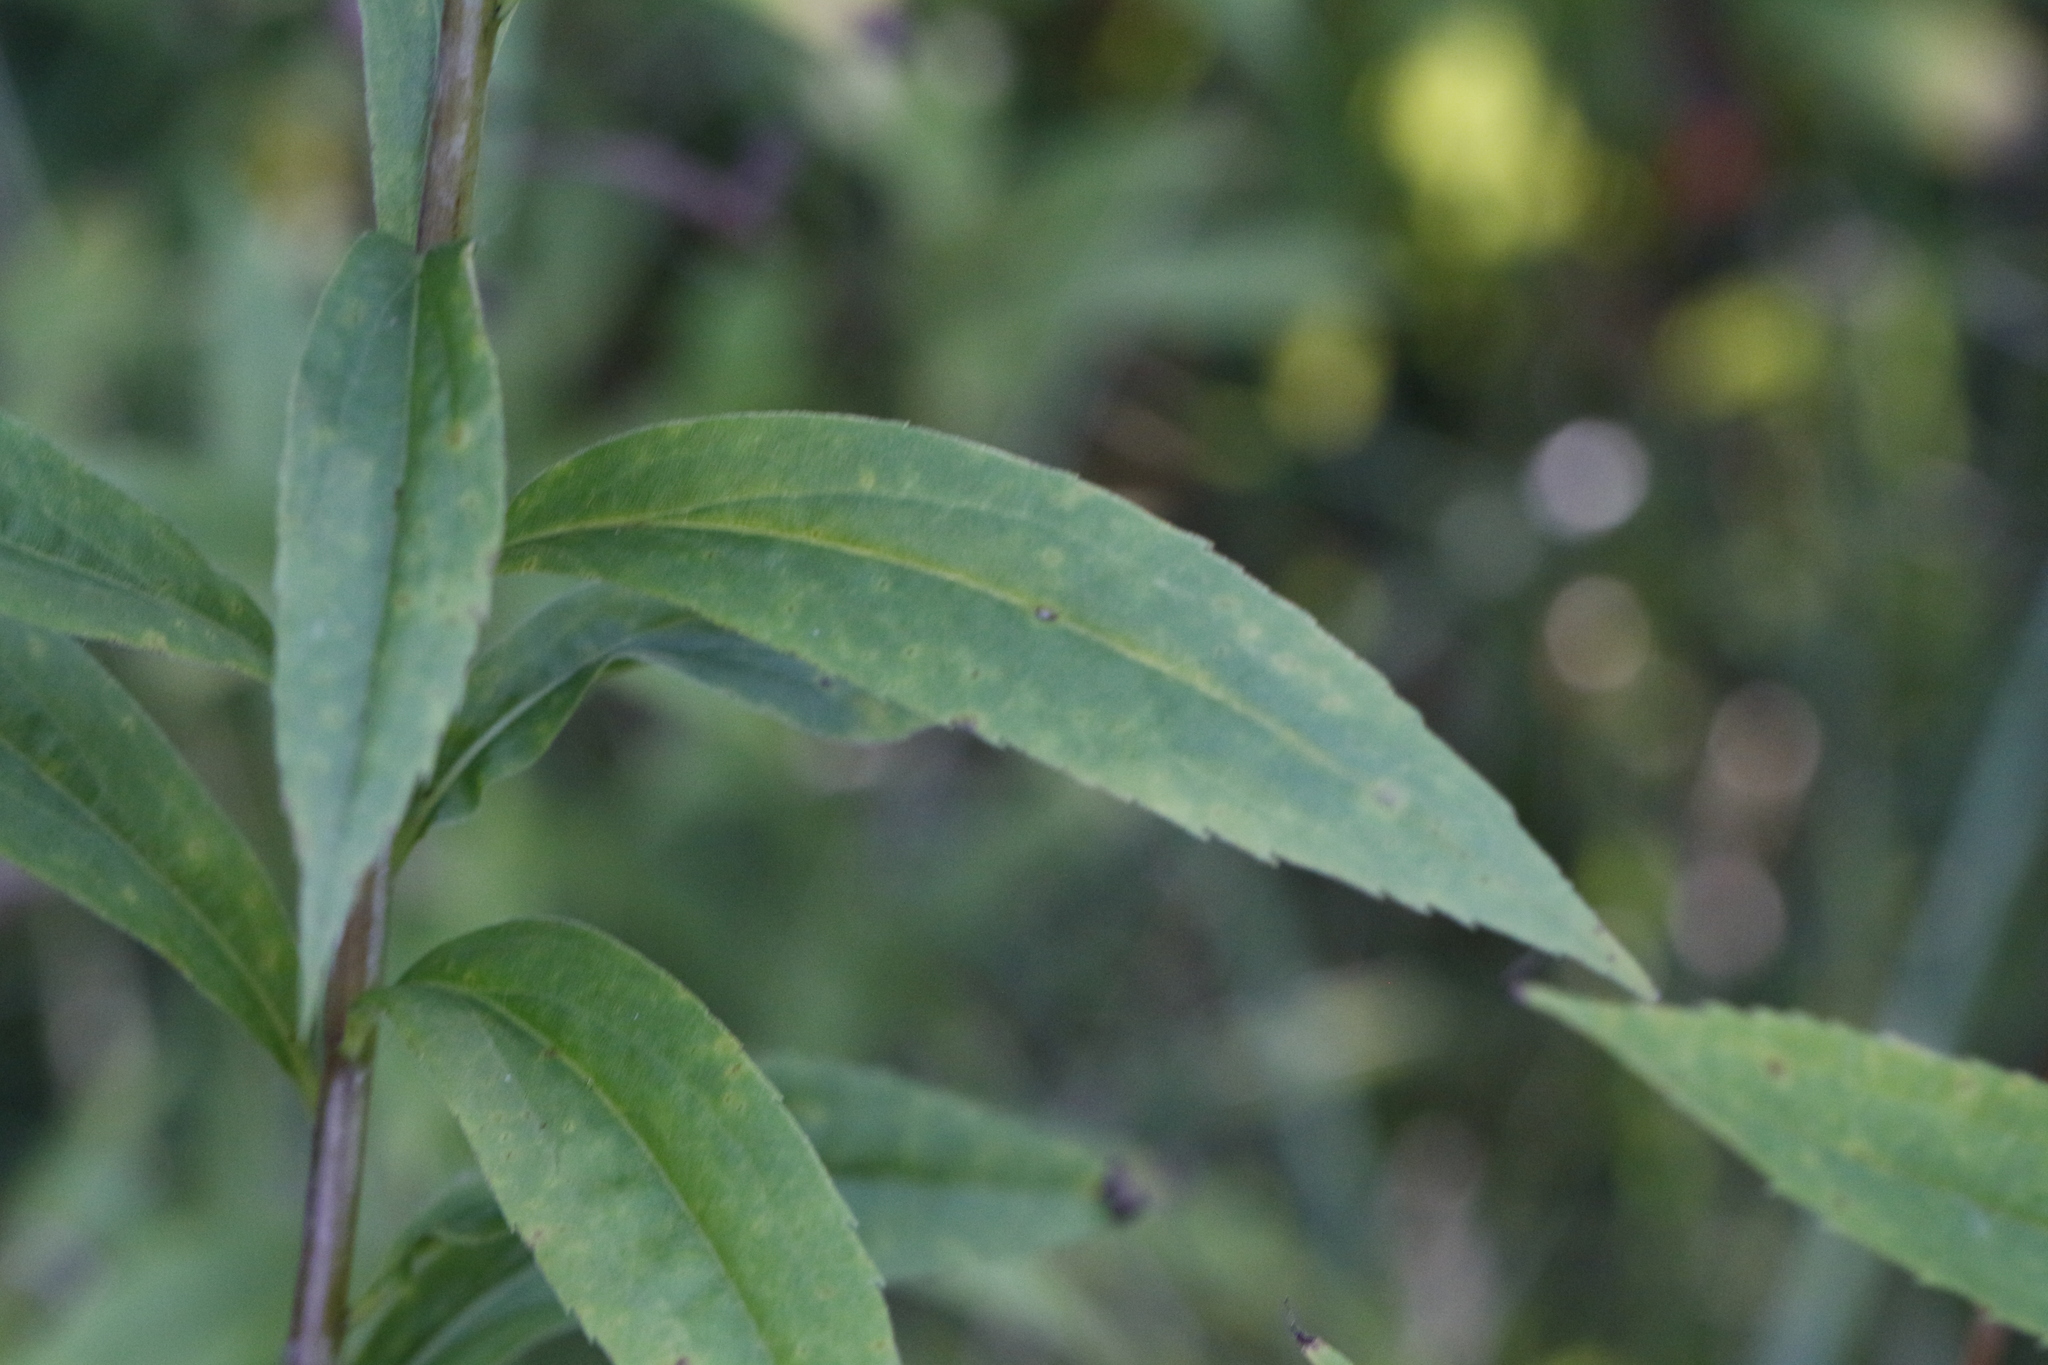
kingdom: Plantae
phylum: Tracheophyta
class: Magnoliopsida
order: Asterales
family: Asteraceae
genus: Solidago
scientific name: Solidago gigantea
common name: Giant goldenrod
